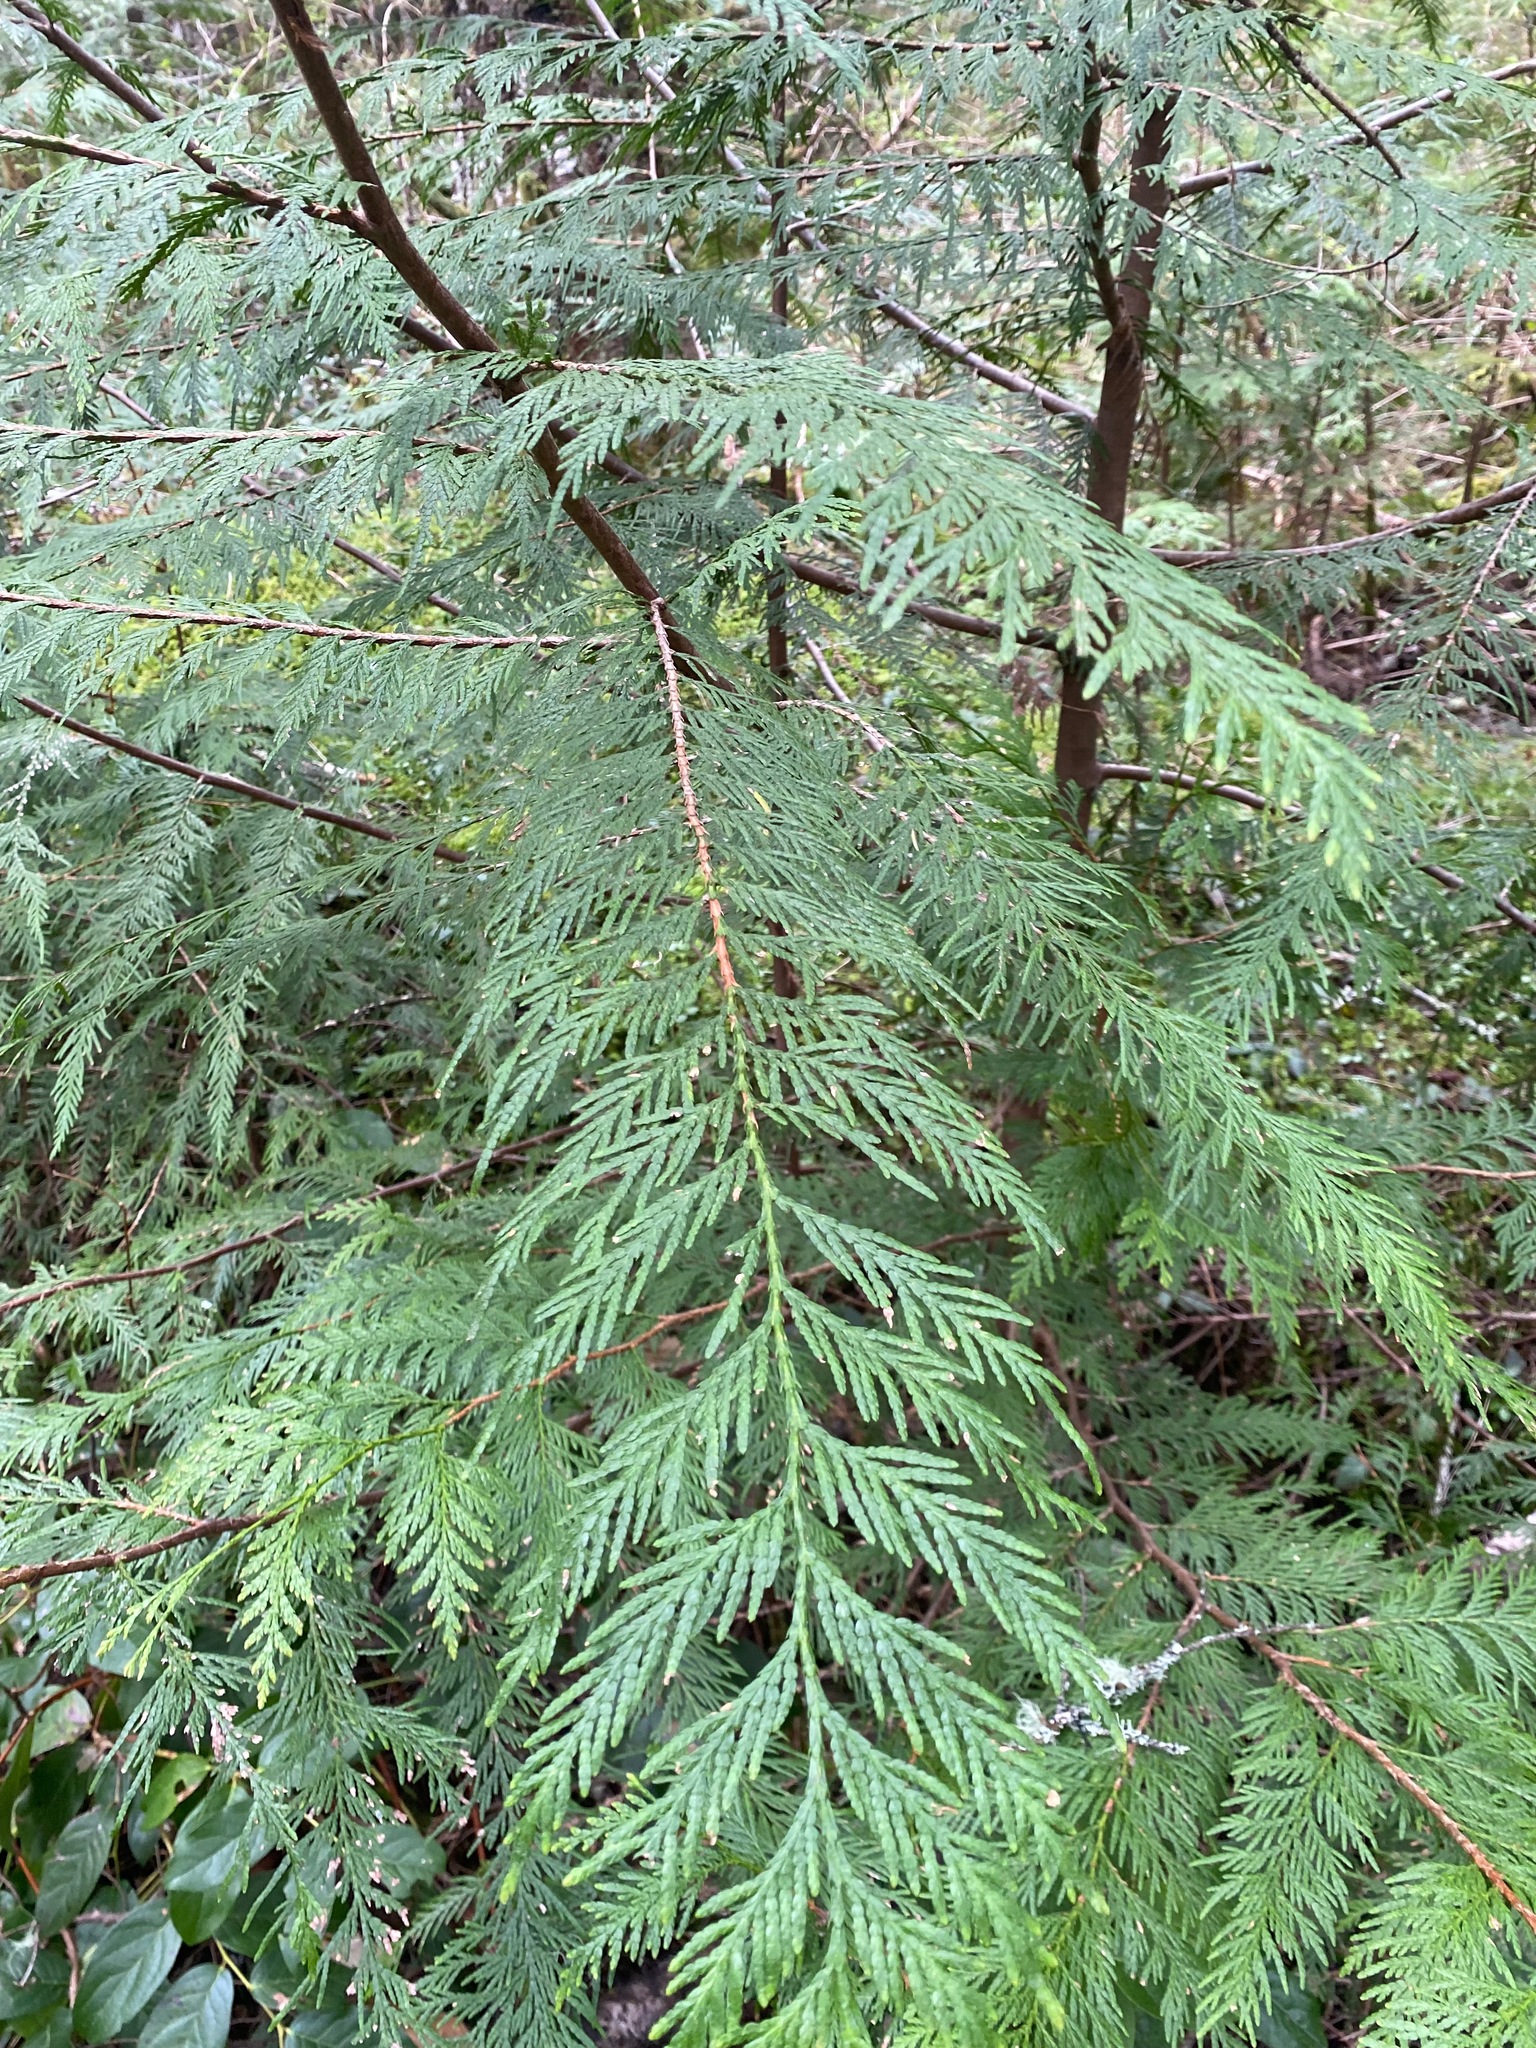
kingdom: Plantae
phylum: Tracheophyta
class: Pinopsida
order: Pinales
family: Cupressaceae
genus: Thuja
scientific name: Thuja plicata
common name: Western red-cedar
